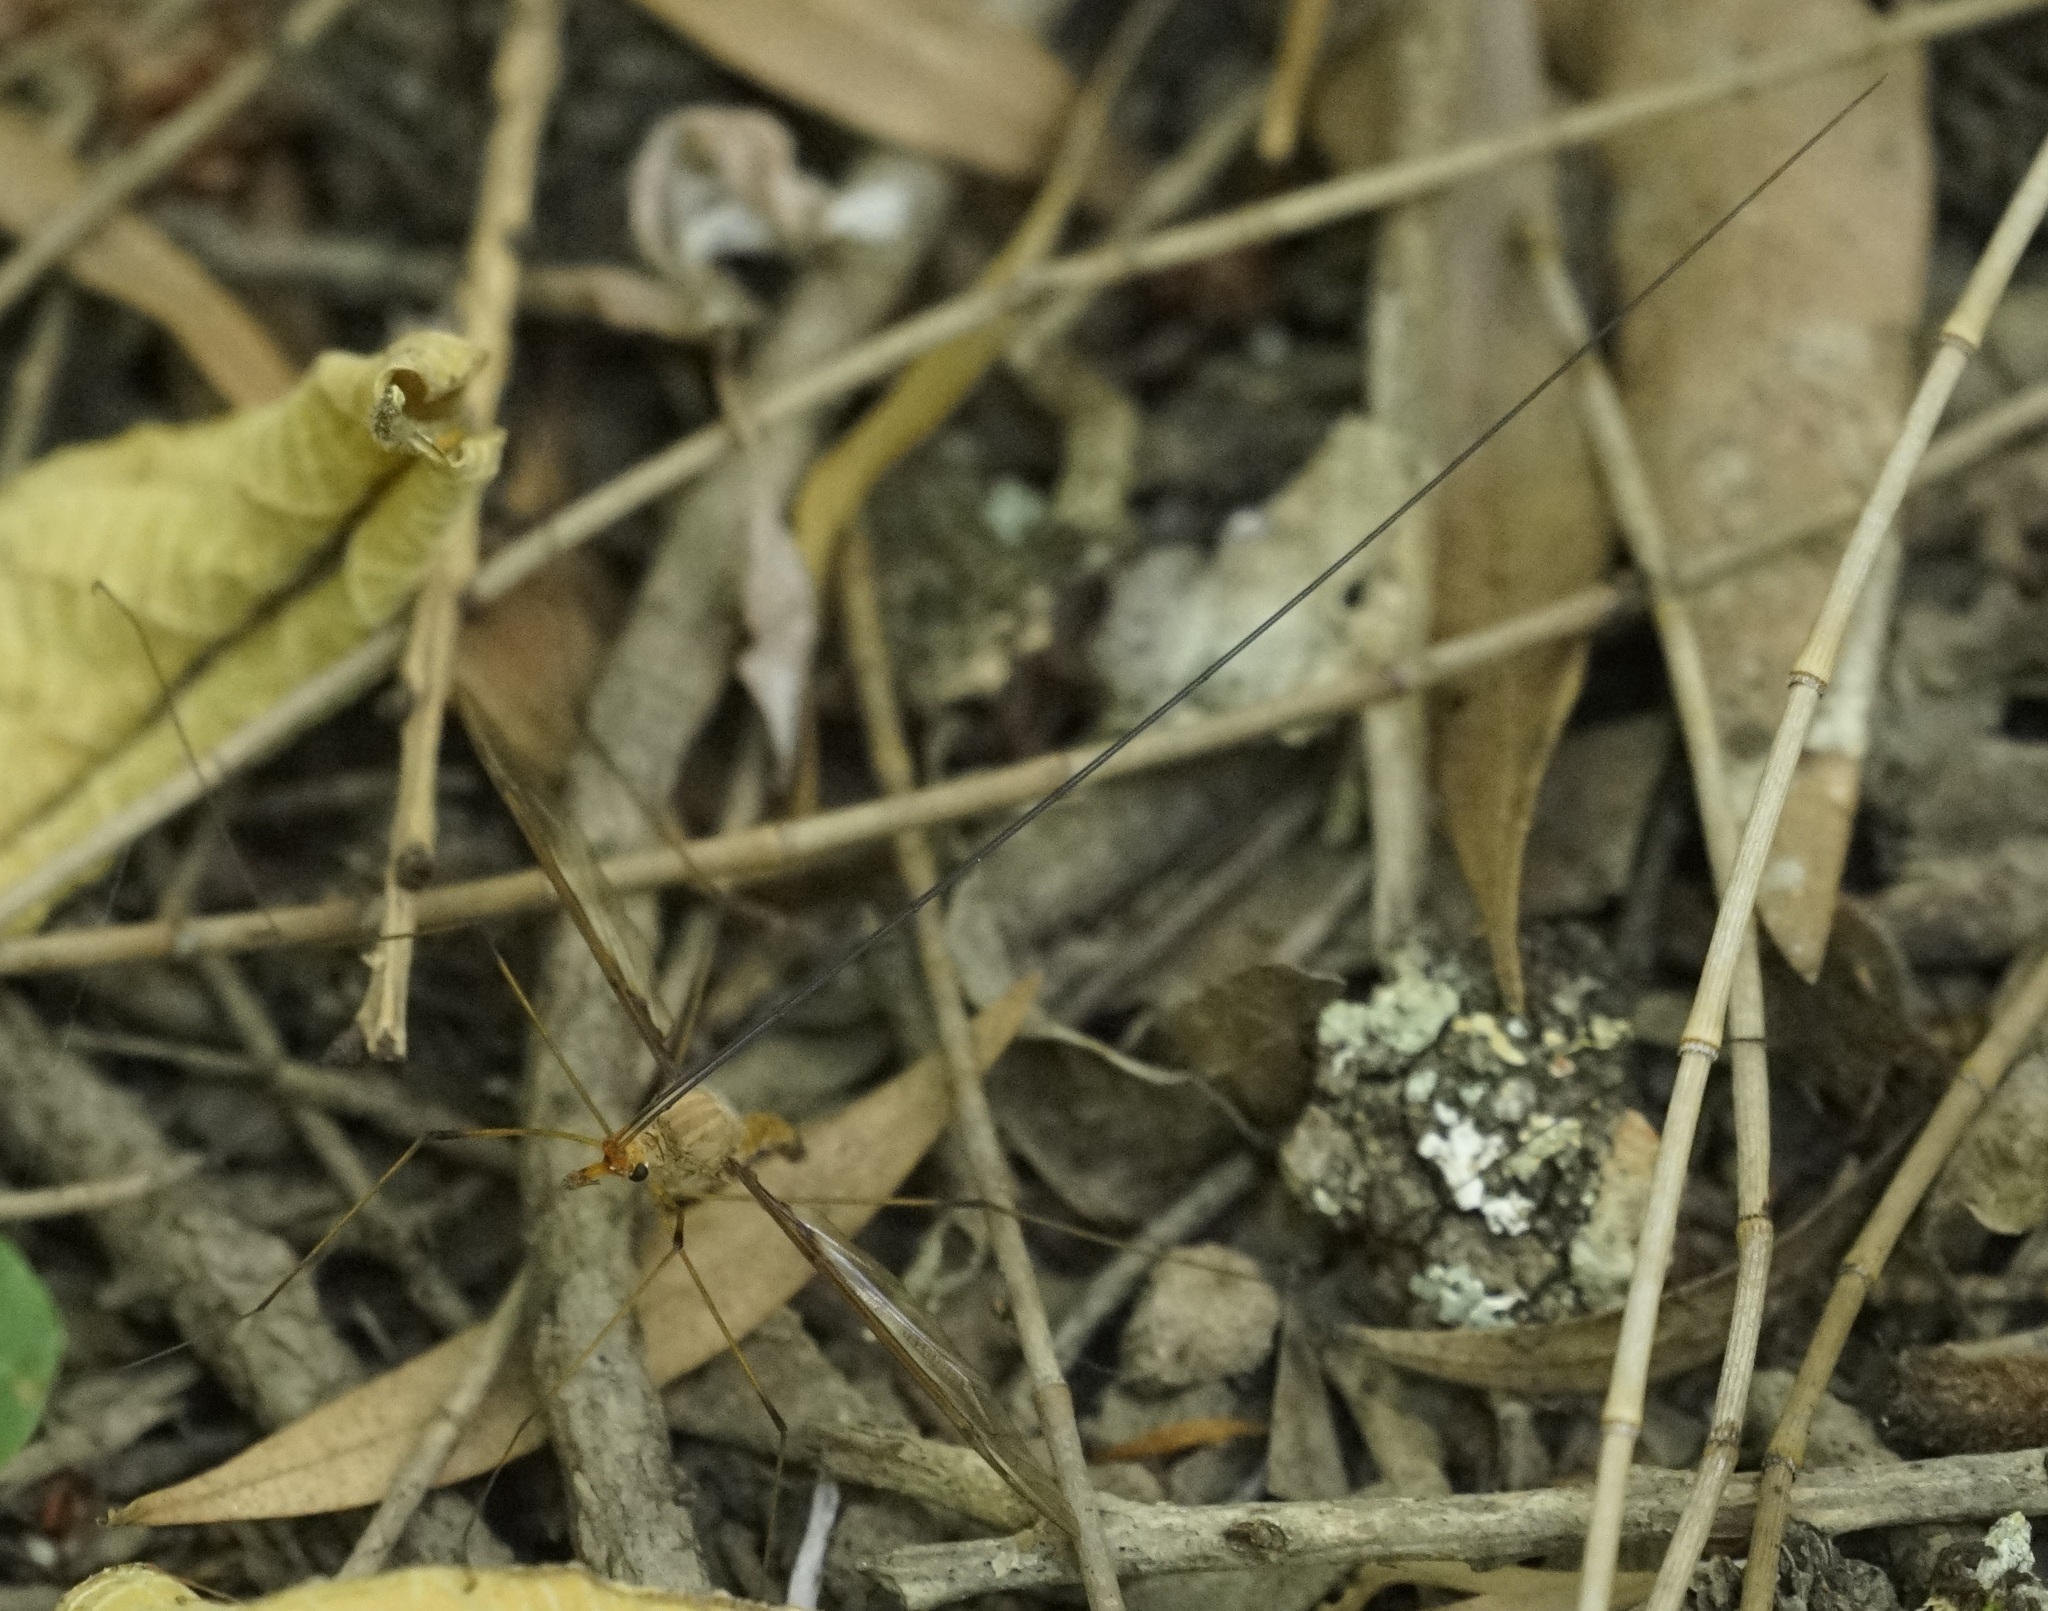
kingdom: Animalia
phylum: Arthropoda
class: Insecta
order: Diptera
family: Tipulidae
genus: Leptotarsus
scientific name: Leptotarsus costalis
